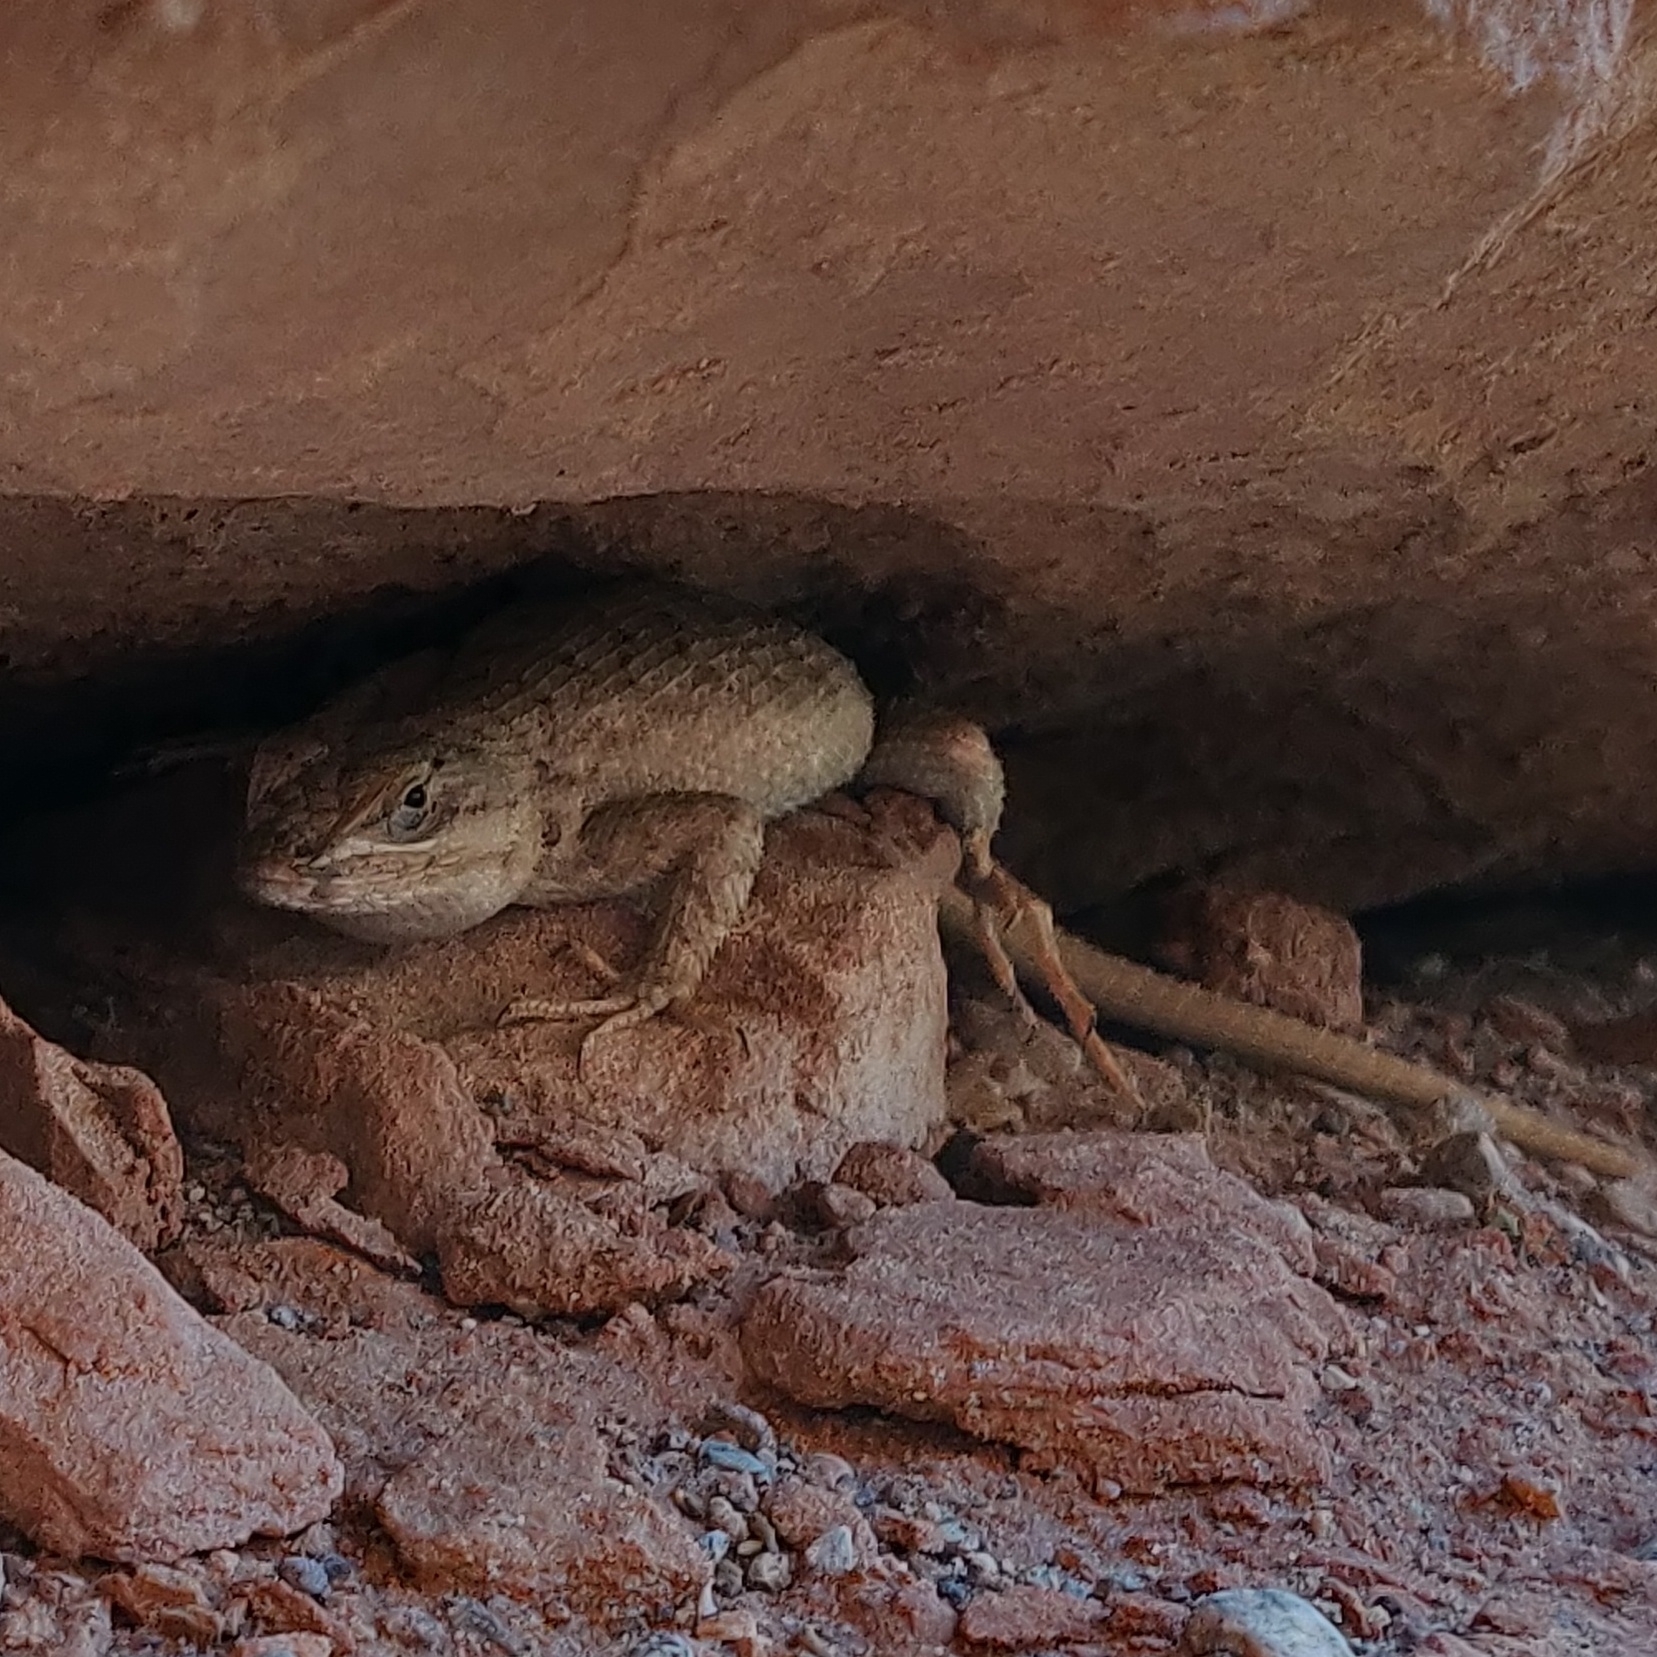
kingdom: Animalia
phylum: Chordata
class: Squamata
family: Phrynosomatidae
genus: Sceloporus
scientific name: Sceloporus tristichus
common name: Plateau fence lizard
